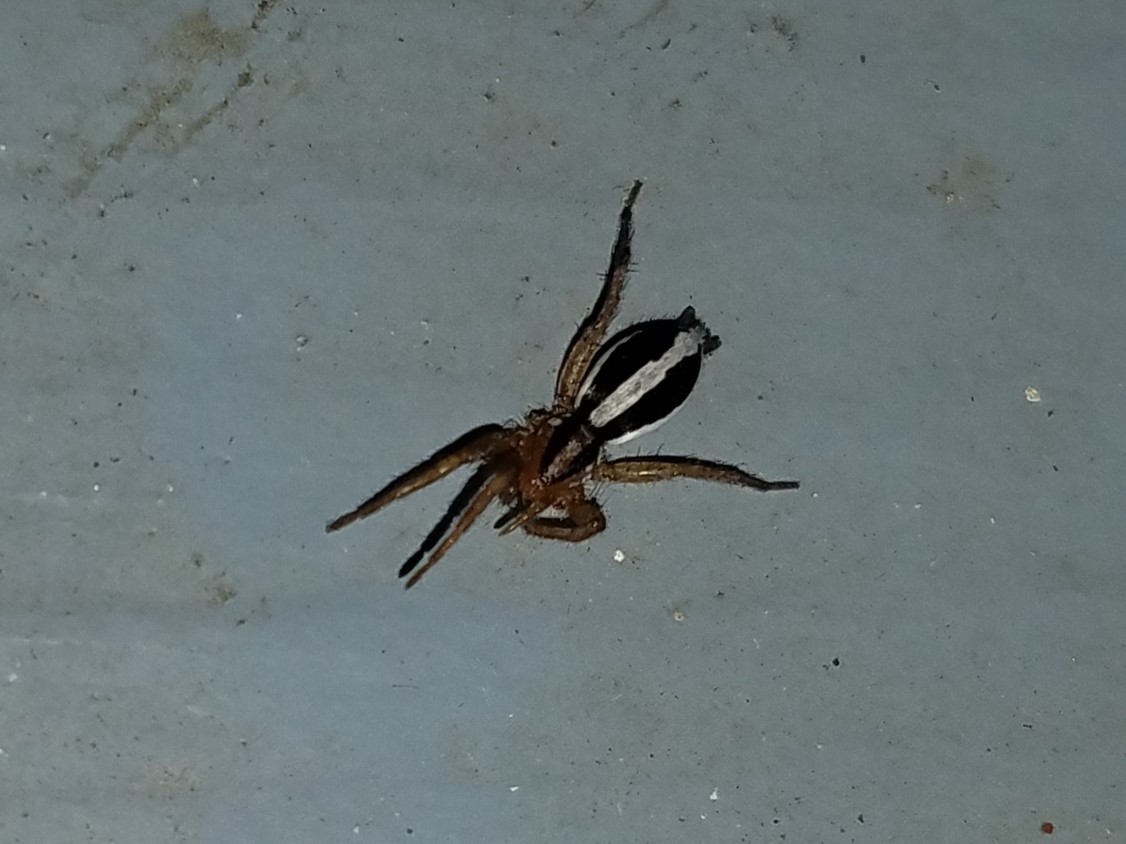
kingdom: Animalia
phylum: Arthropoda
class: Arachnida
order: Araneae
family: Gnaphosidae
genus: Cesonia
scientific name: Cesonia bilineata
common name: Two-lined stealthy ground spider
